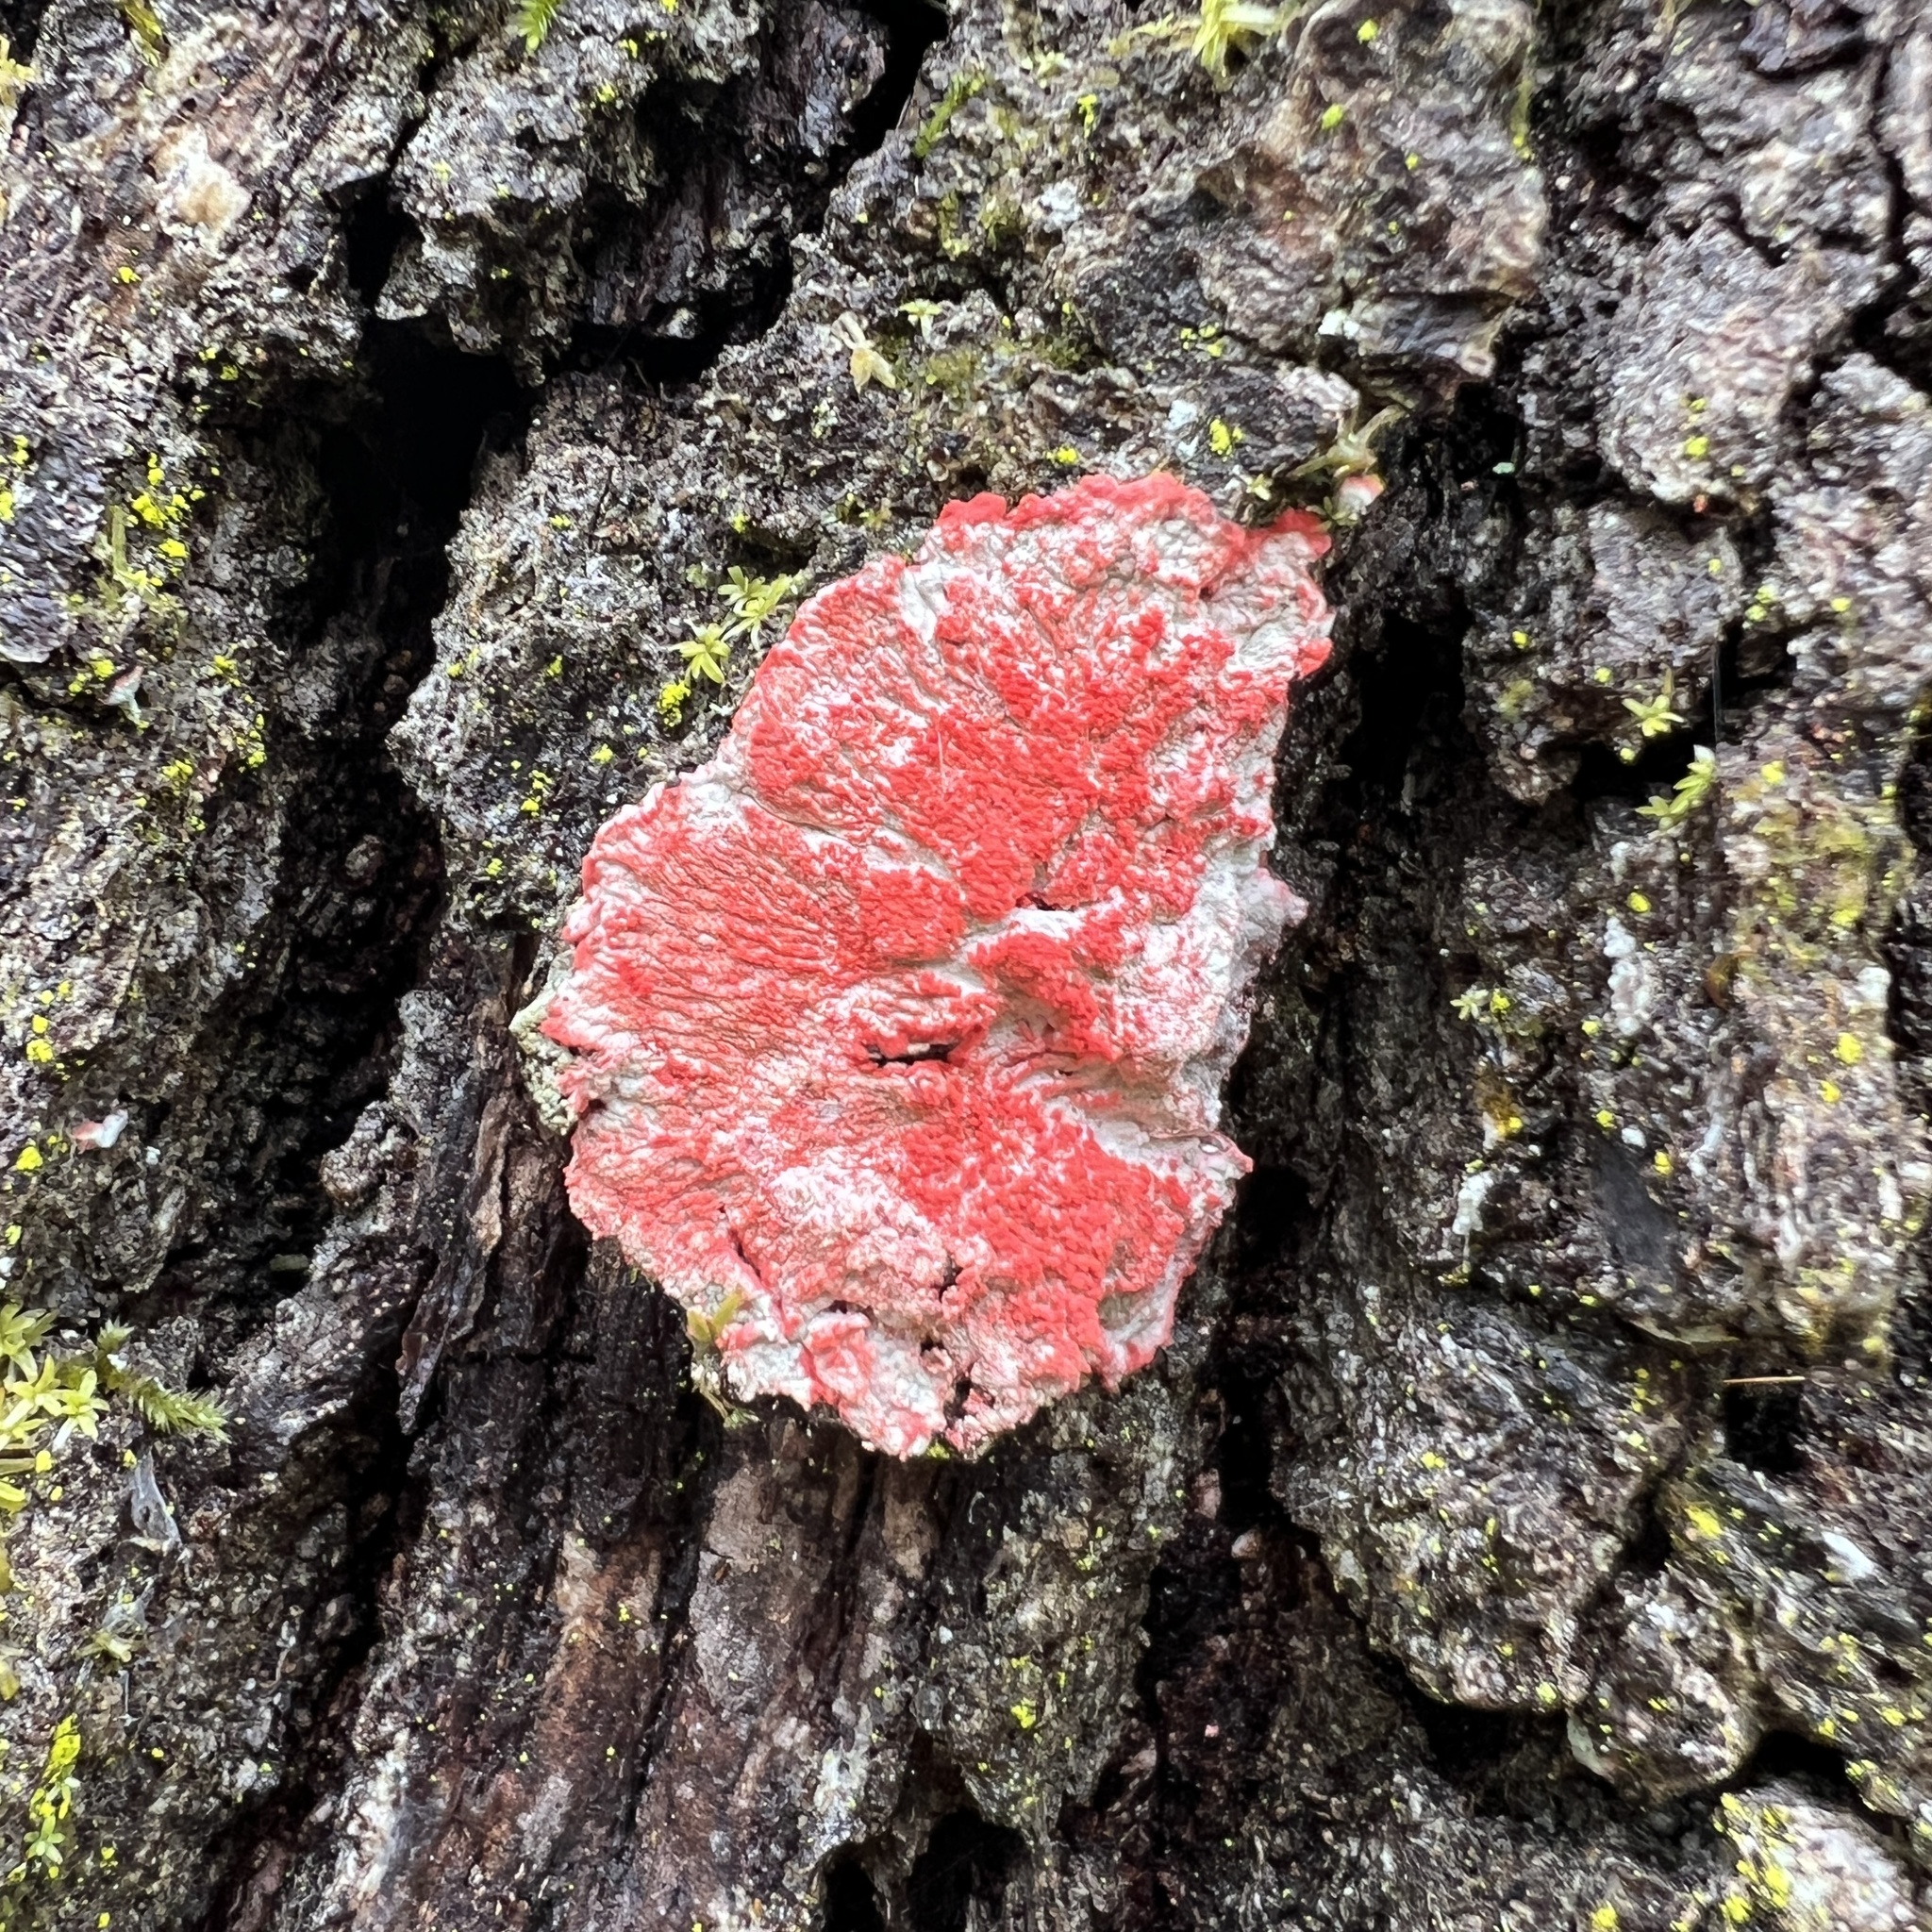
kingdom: Fungi
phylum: Ascomycota
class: Arthoniomycetes
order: Arthoniales
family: Arthoniaceae
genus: Herpothallon
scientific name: Herpothallon rubrocinctum
